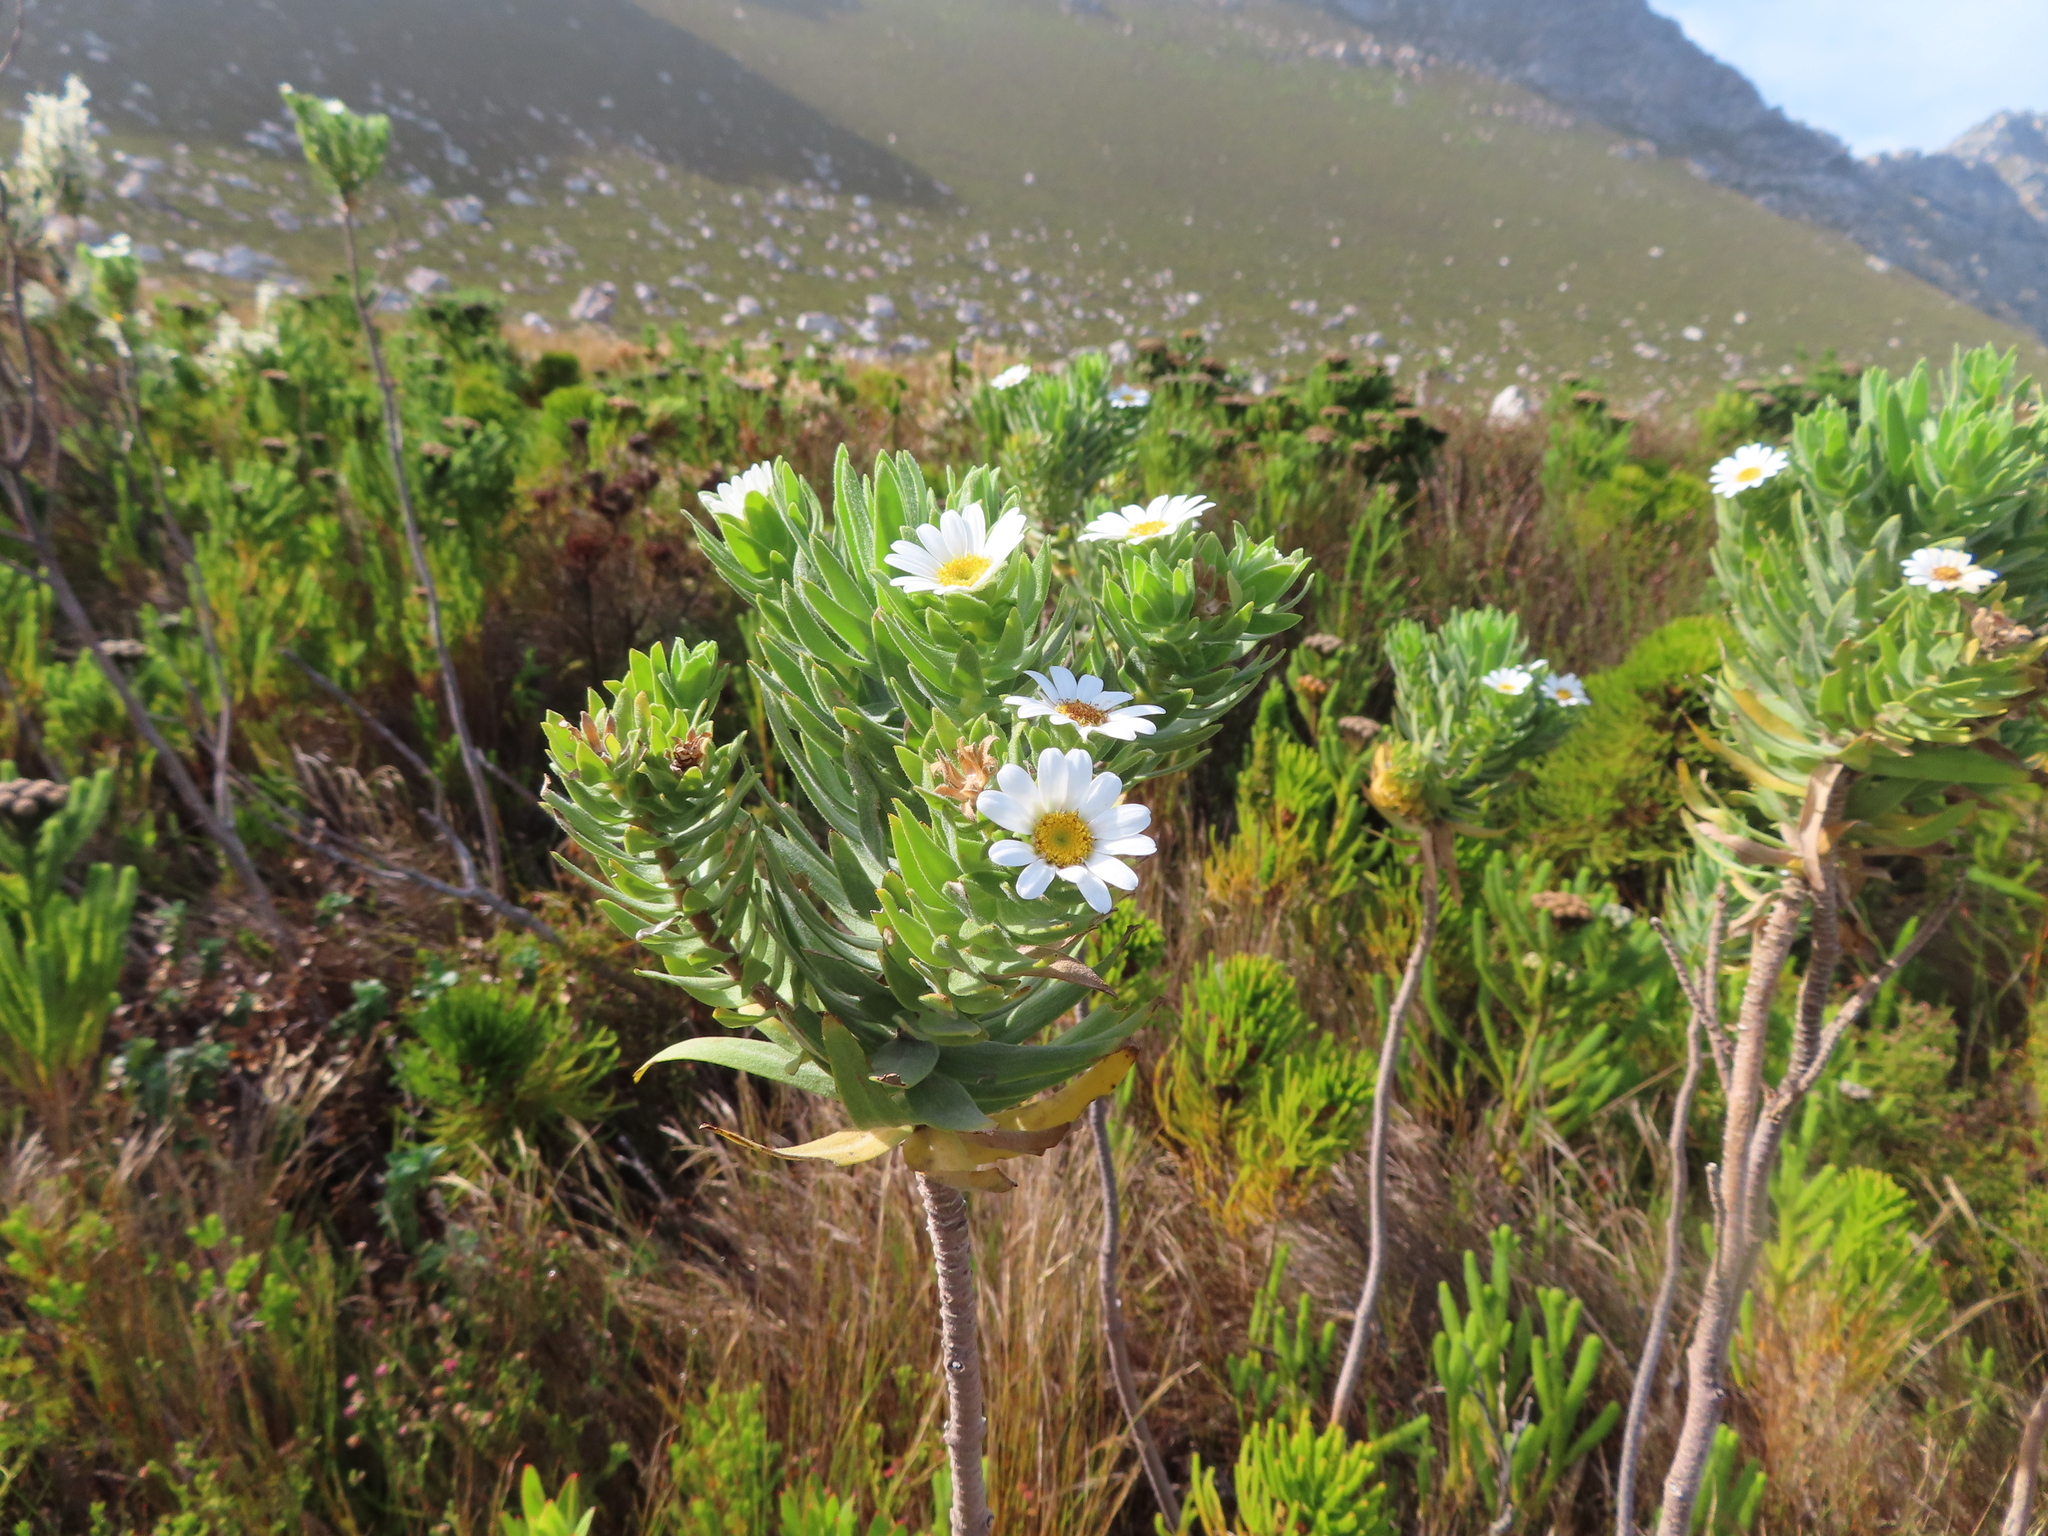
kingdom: Plantae
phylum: Tracheophyta
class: Magnoliopsida
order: Asterales
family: Asteraceae
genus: Osmitopsis
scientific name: Osmitopsis asteriscoides
